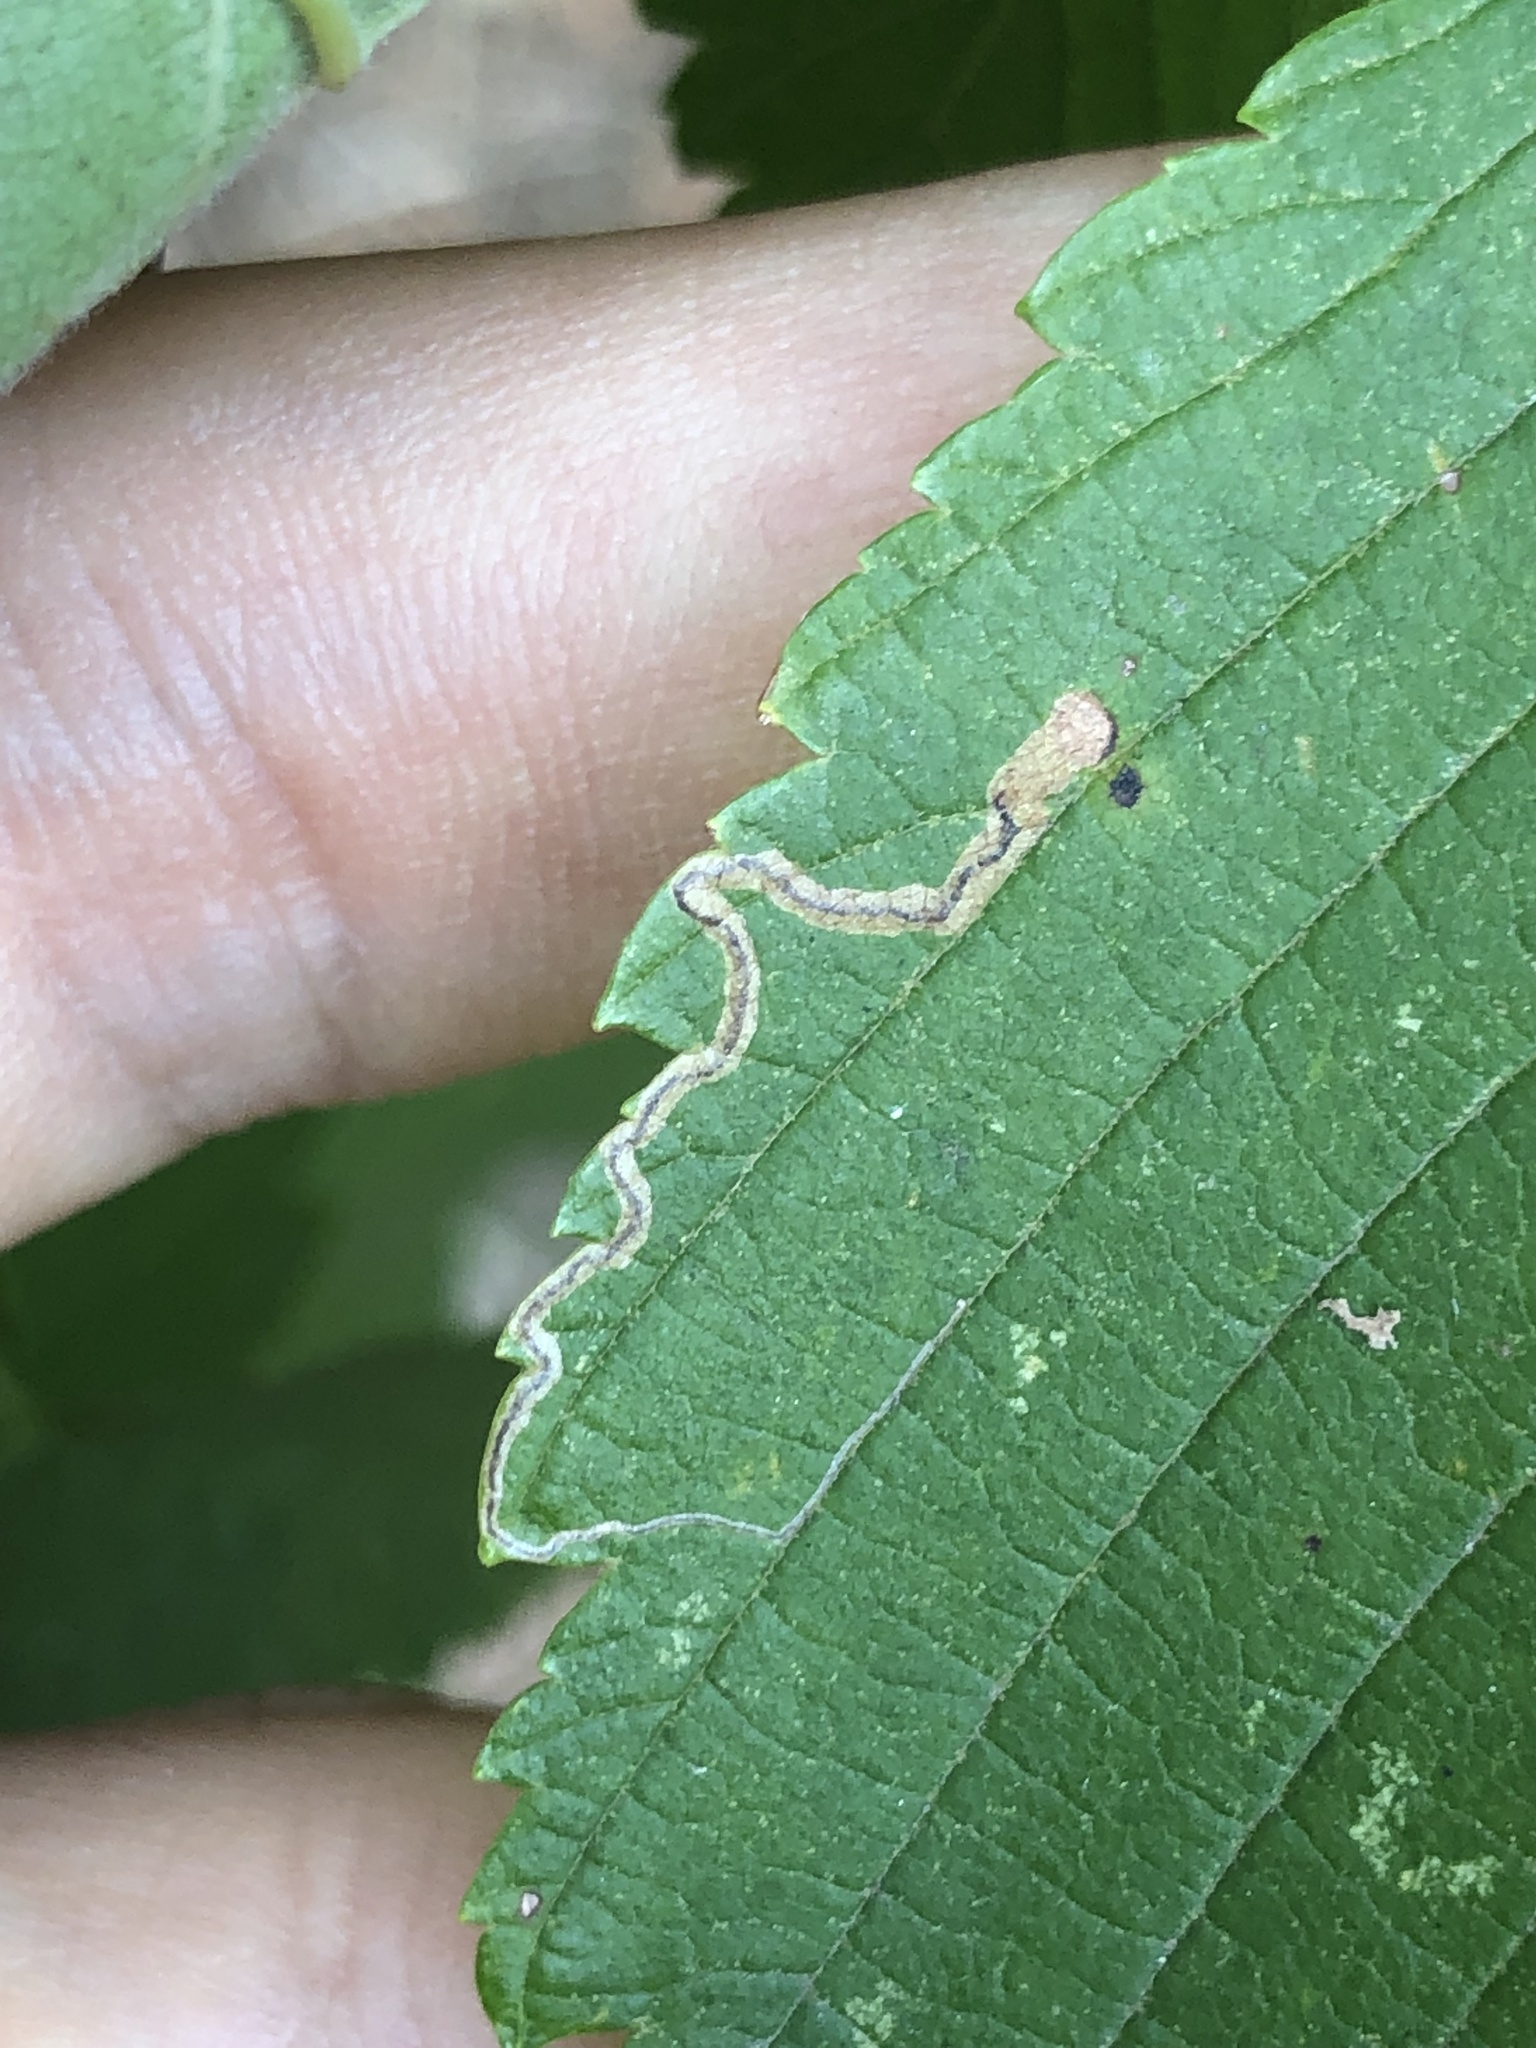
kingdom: Animalia
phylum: Arthropoda
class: Insecta
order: Lepidoptera
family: Nepticulidae
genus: Stigmella
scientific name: Stigmella apicialbella
